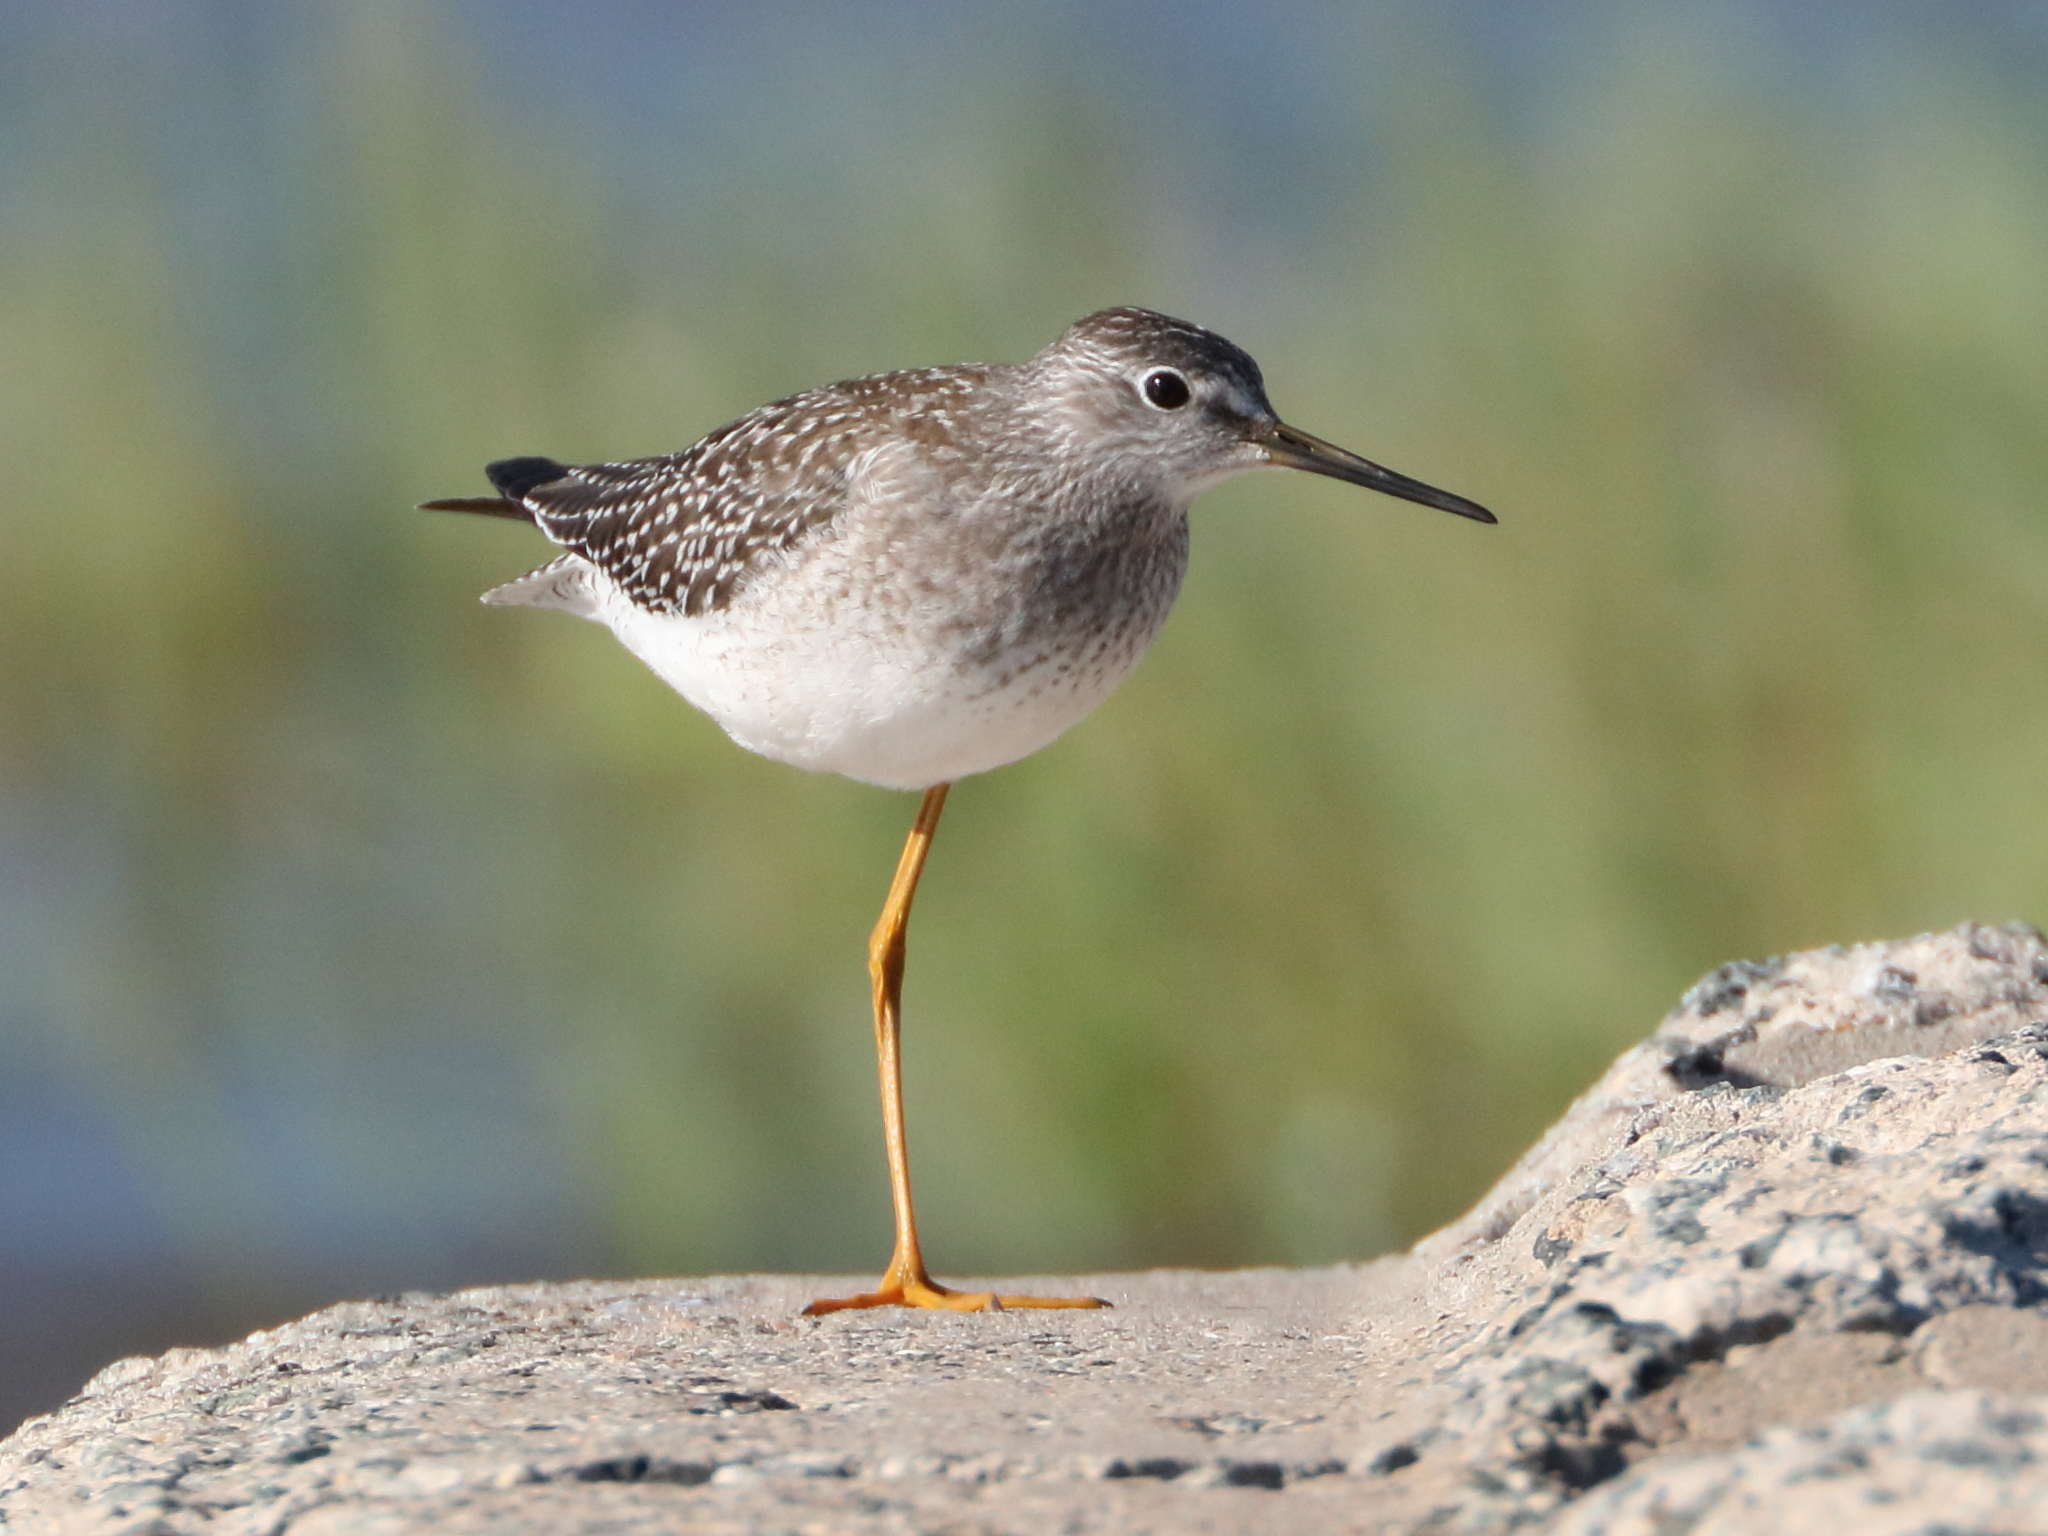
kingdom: Animalia
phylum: Chordata
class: Aves
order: Charadriiformes
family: Scolopacidae
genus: Tringa
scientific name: Tringa flavipes
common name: Lesser yellowlegs
